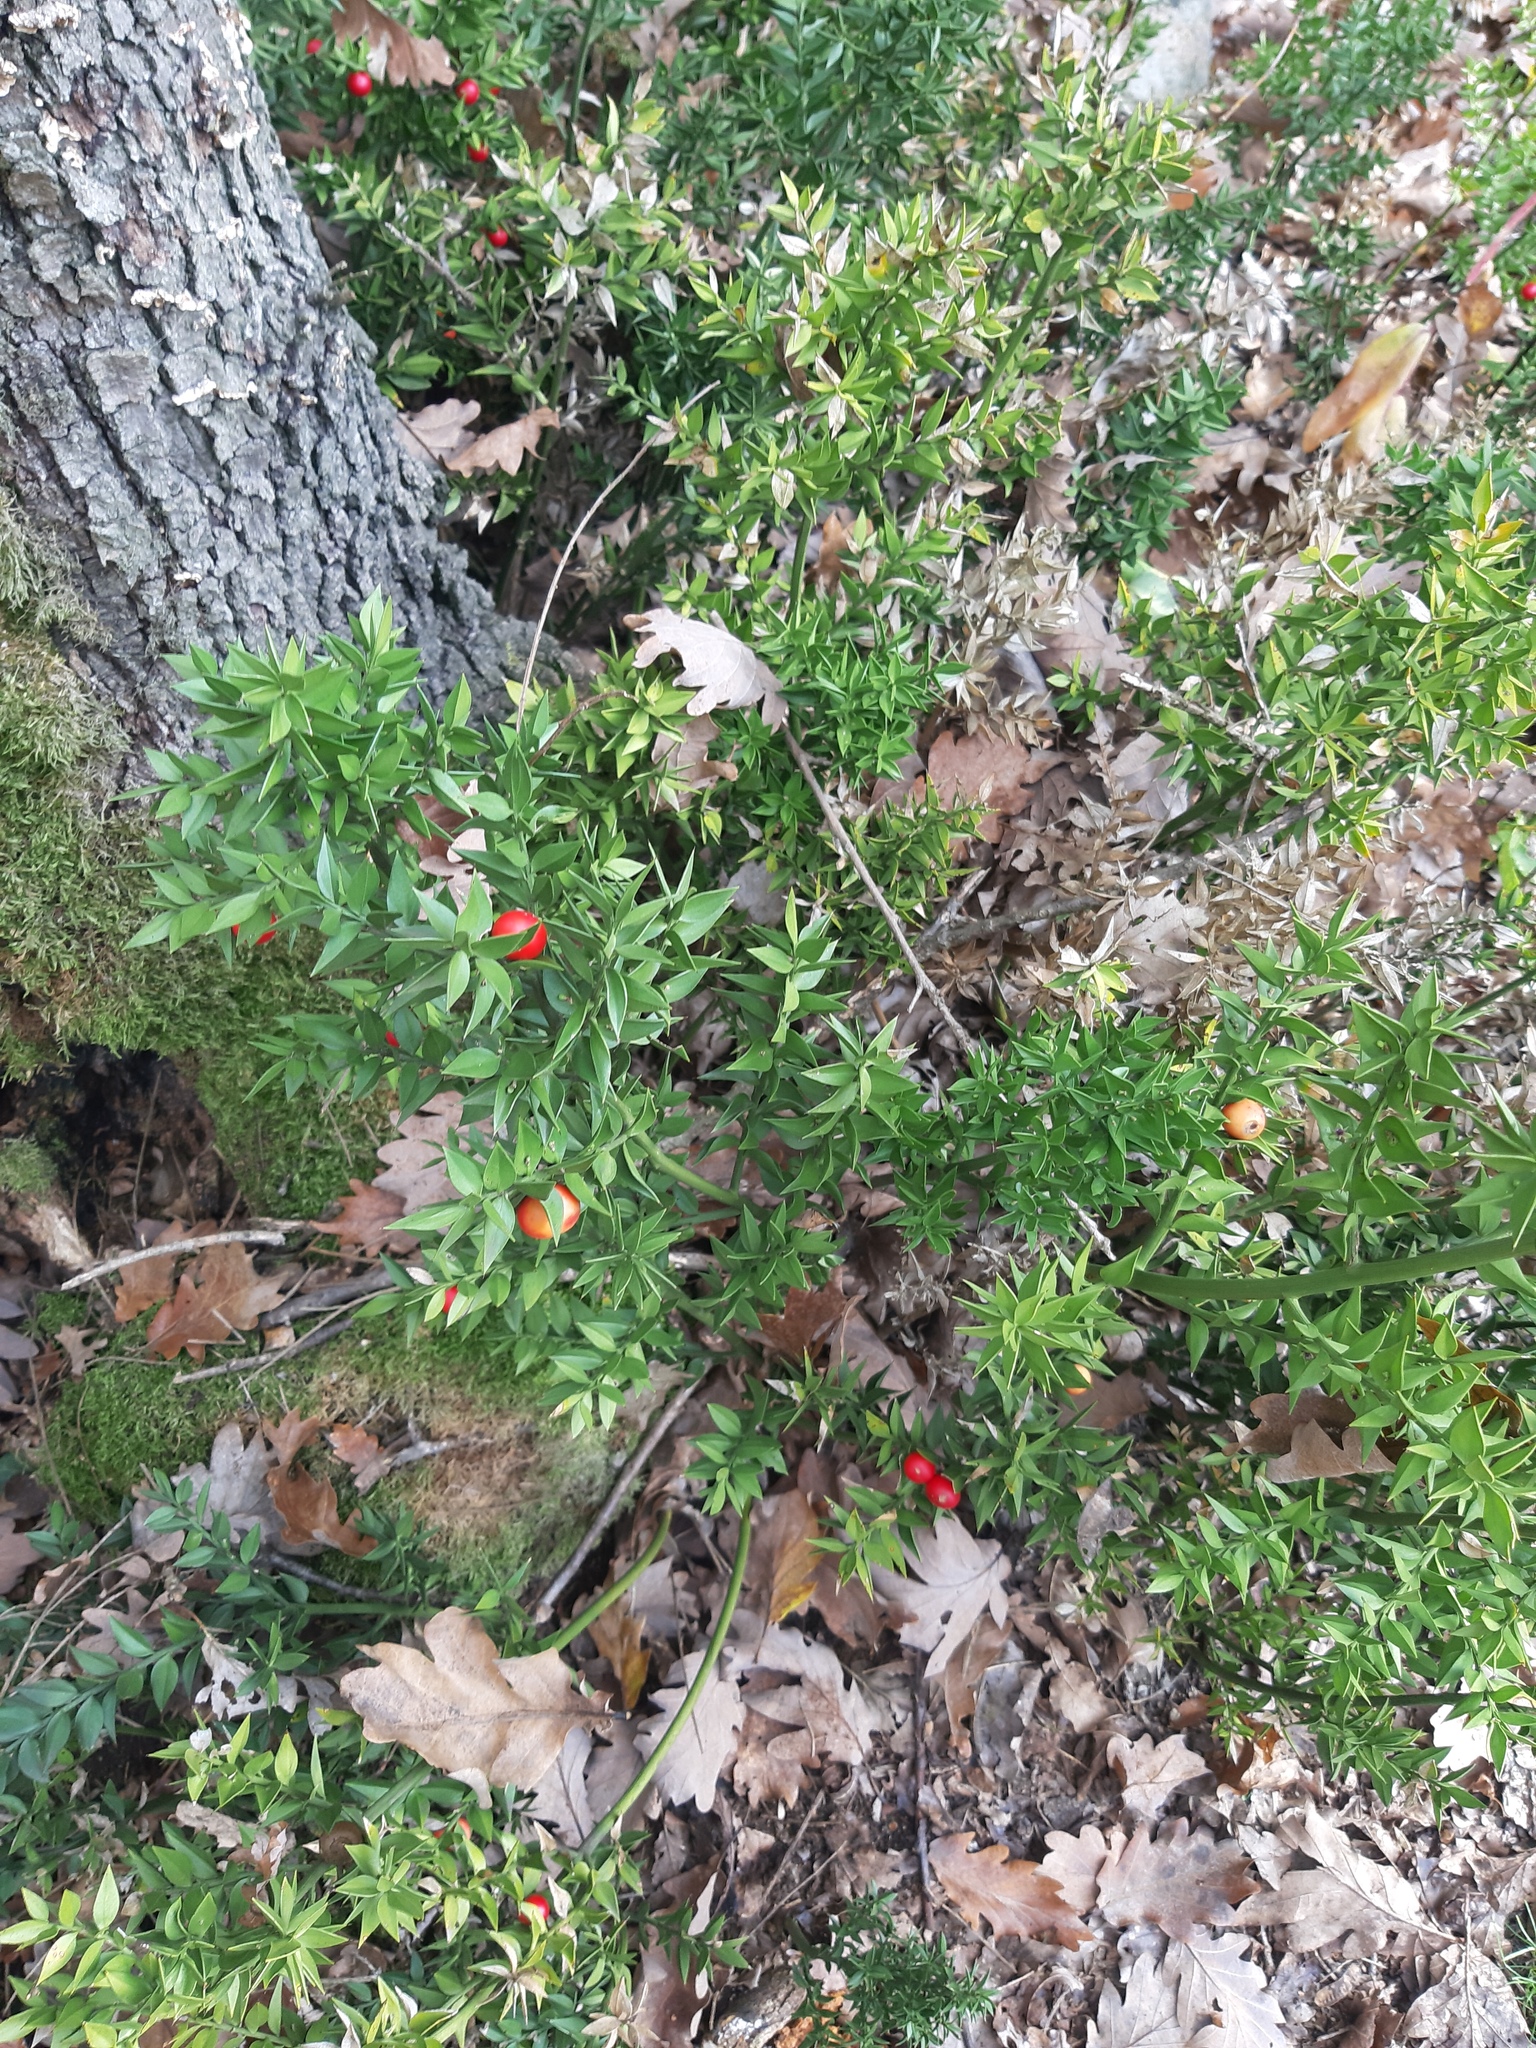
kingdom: Plantae
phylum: Tracheophyta
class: Liliopsida
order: Asparagales
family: Asparagaceae
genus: Ruscus
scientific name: Ruscus aculeatus
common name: Butcher's-broom
